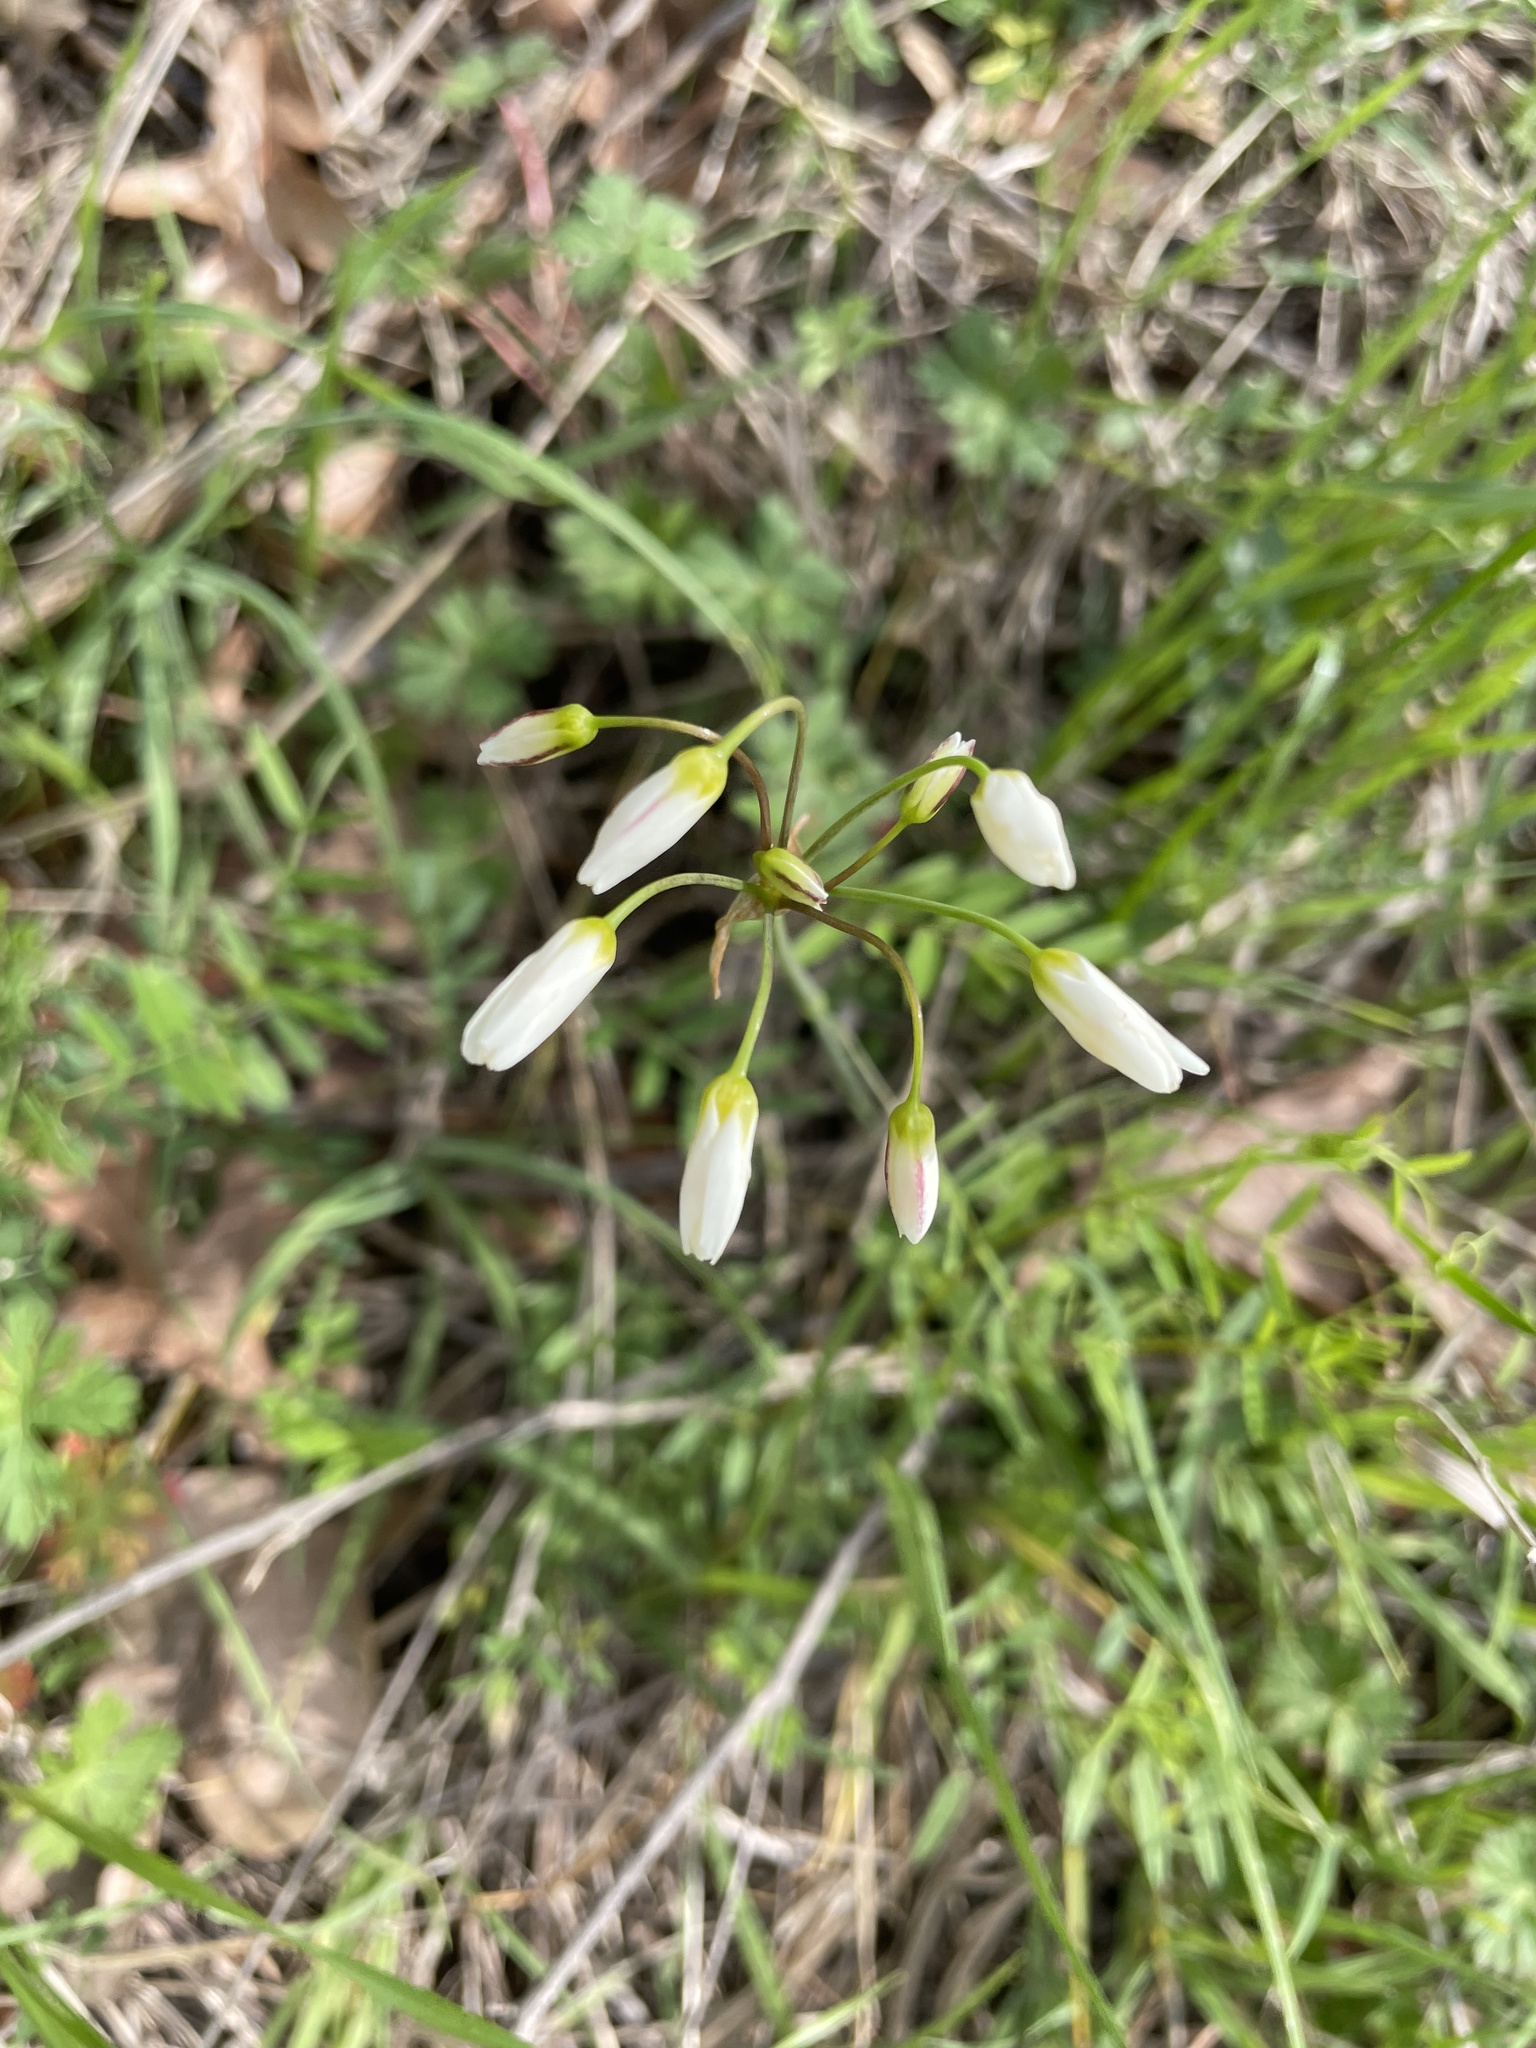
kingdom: Plantae
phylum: Tracheophyta
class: Liliopsida
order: Asparagales
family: Amaryllidaceae
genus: Nothoscordum
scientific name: Nothoscordum bivalve
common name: Crow-poison
